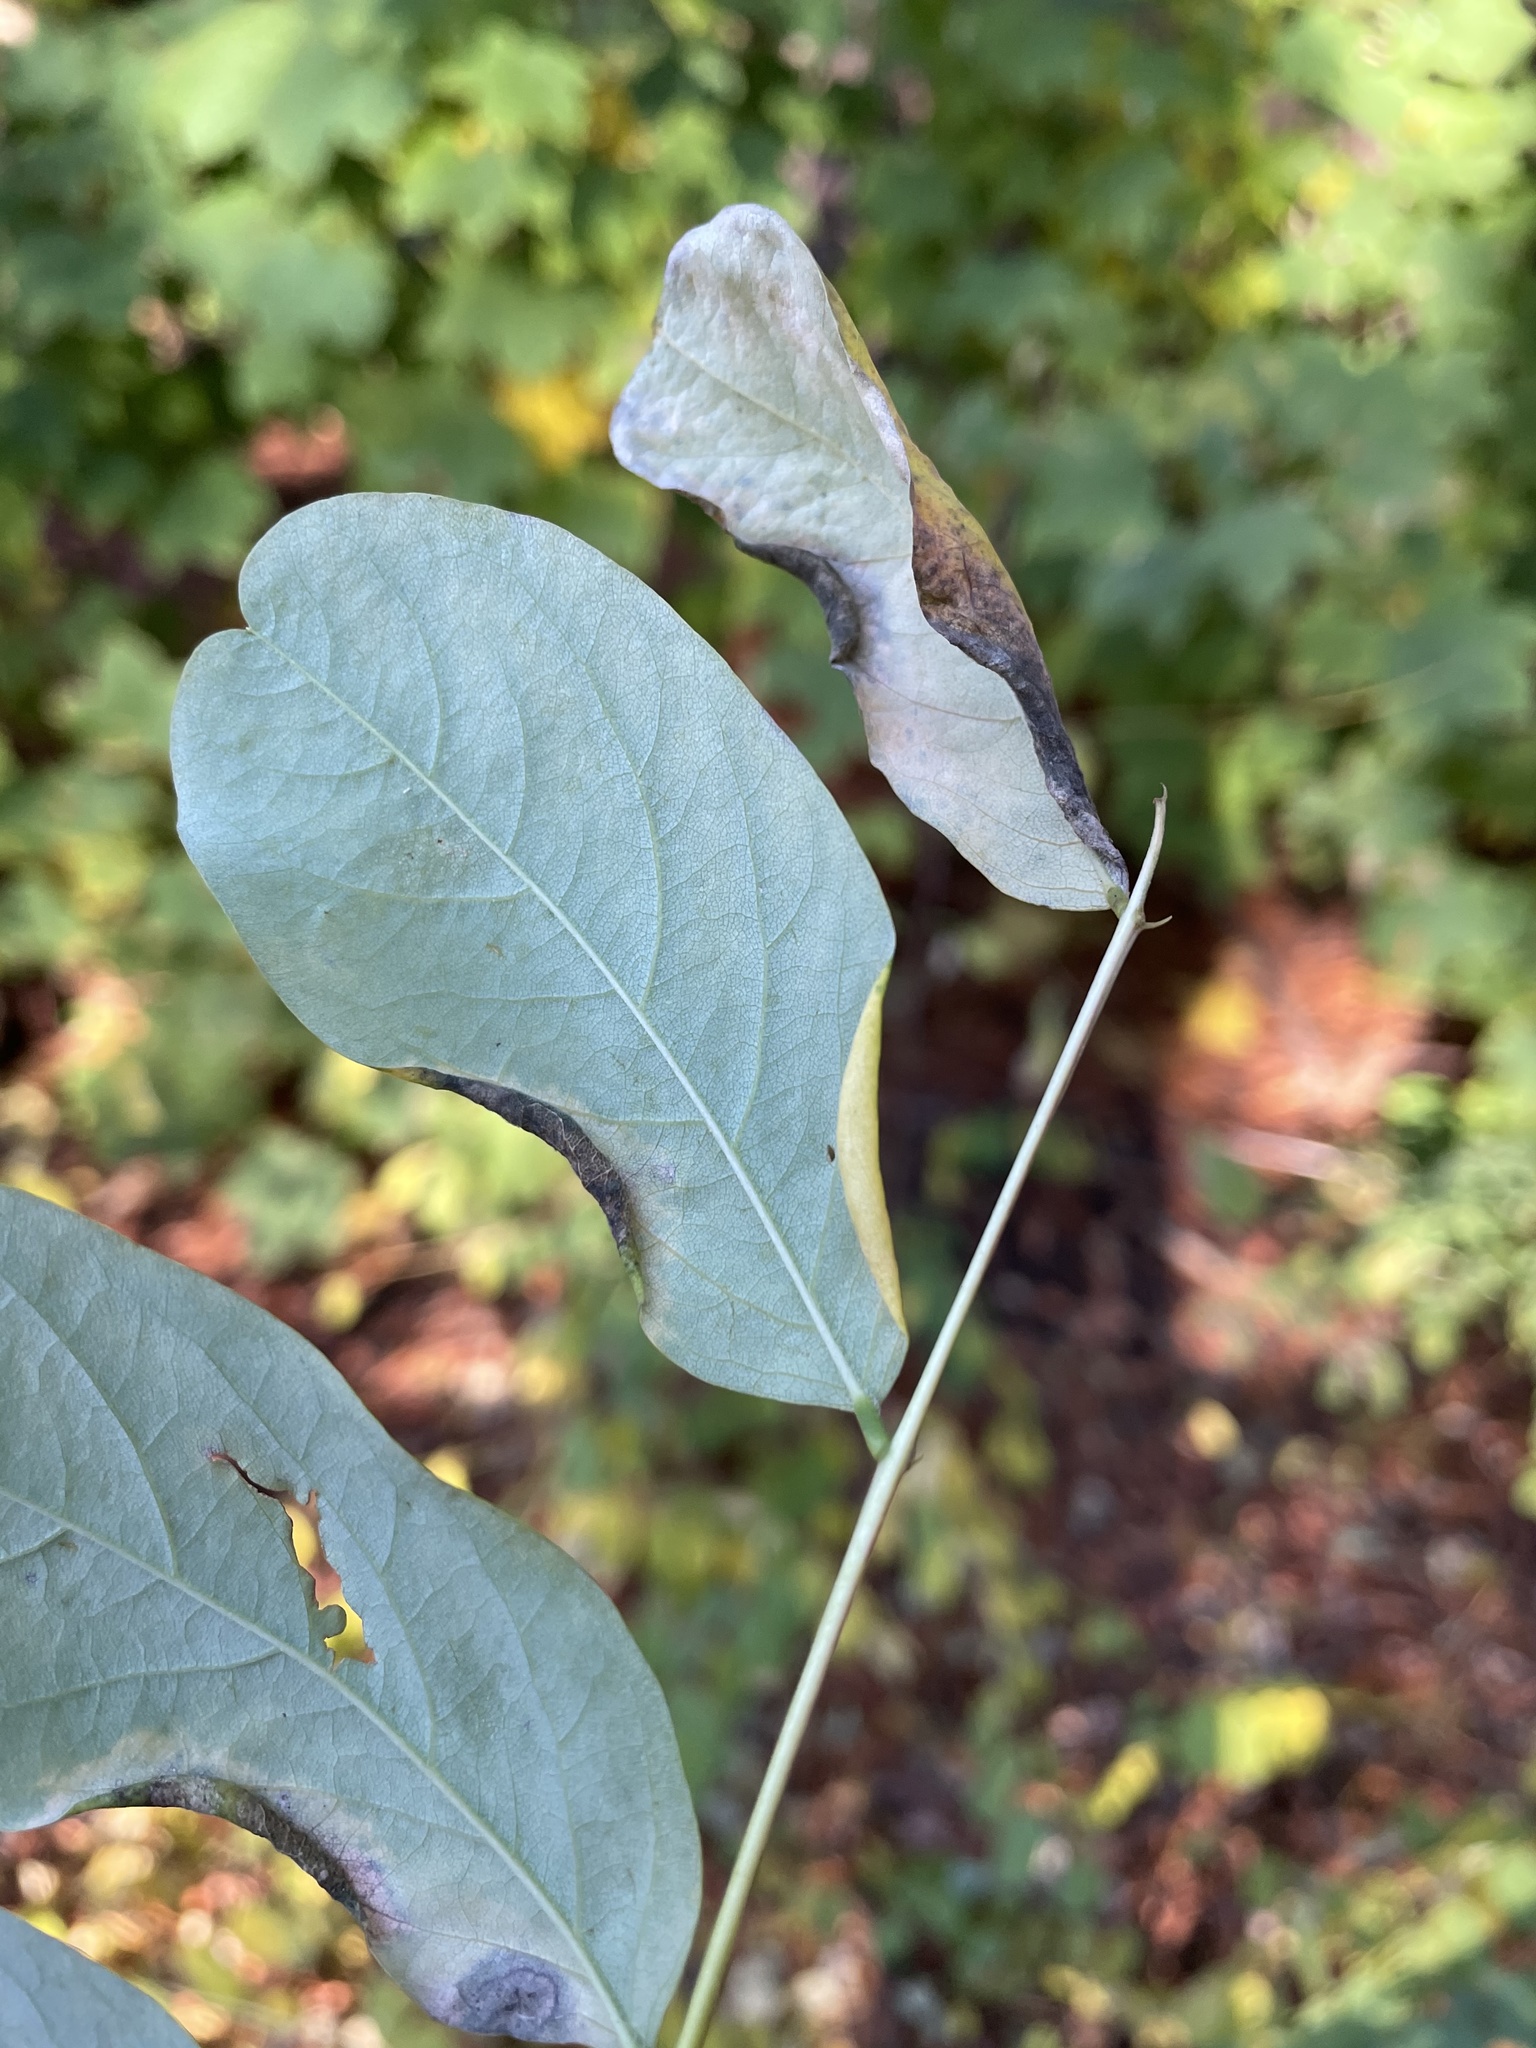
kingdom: Animalia
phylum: Arthropoda
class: Insecta
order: Diptera
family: Cecidomyiidae
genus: Obolodiplosis
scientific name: Obolodiplosis robiniae
